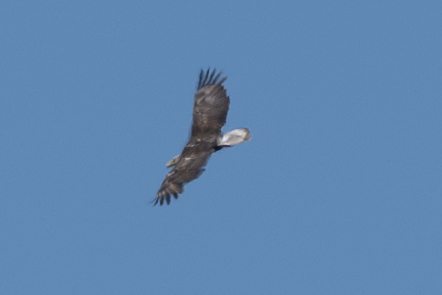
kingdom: Animalia
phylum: Chordata
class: Aves
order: Accipitriformes
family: Accipitridae
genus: Haliaeetus
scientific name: Haliaeetus leucocephalus
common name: Bald eagle
